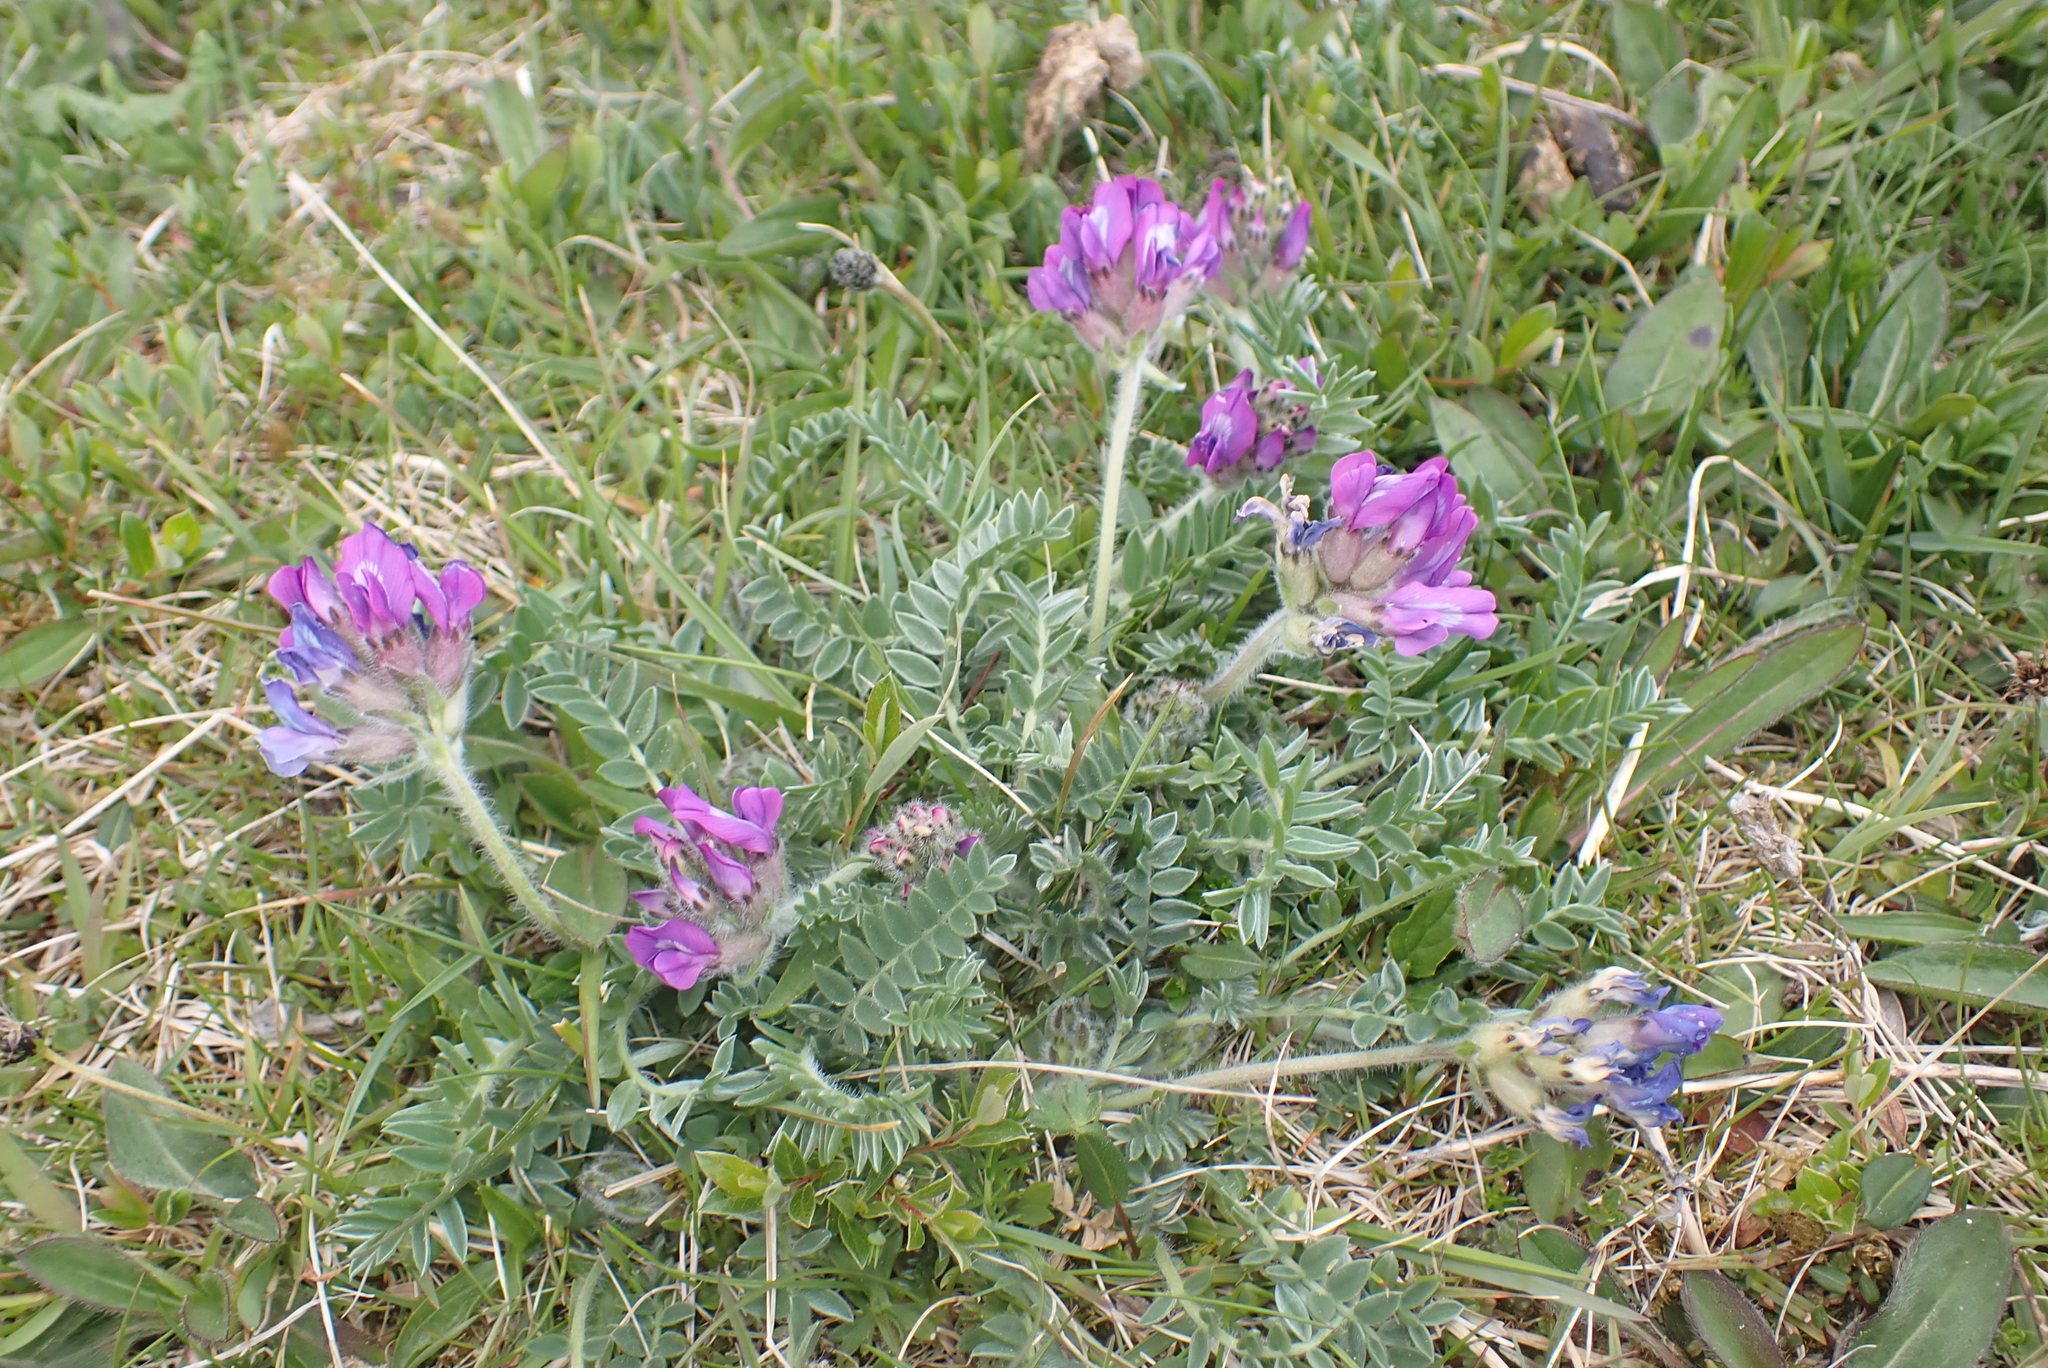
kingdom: Plantae
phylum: Tracheophyta
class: Magnoliopsida
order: Fabales
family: Fabaceae
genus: Astragalus
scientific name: Astragalus danicus
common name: Purple milk-vetch
